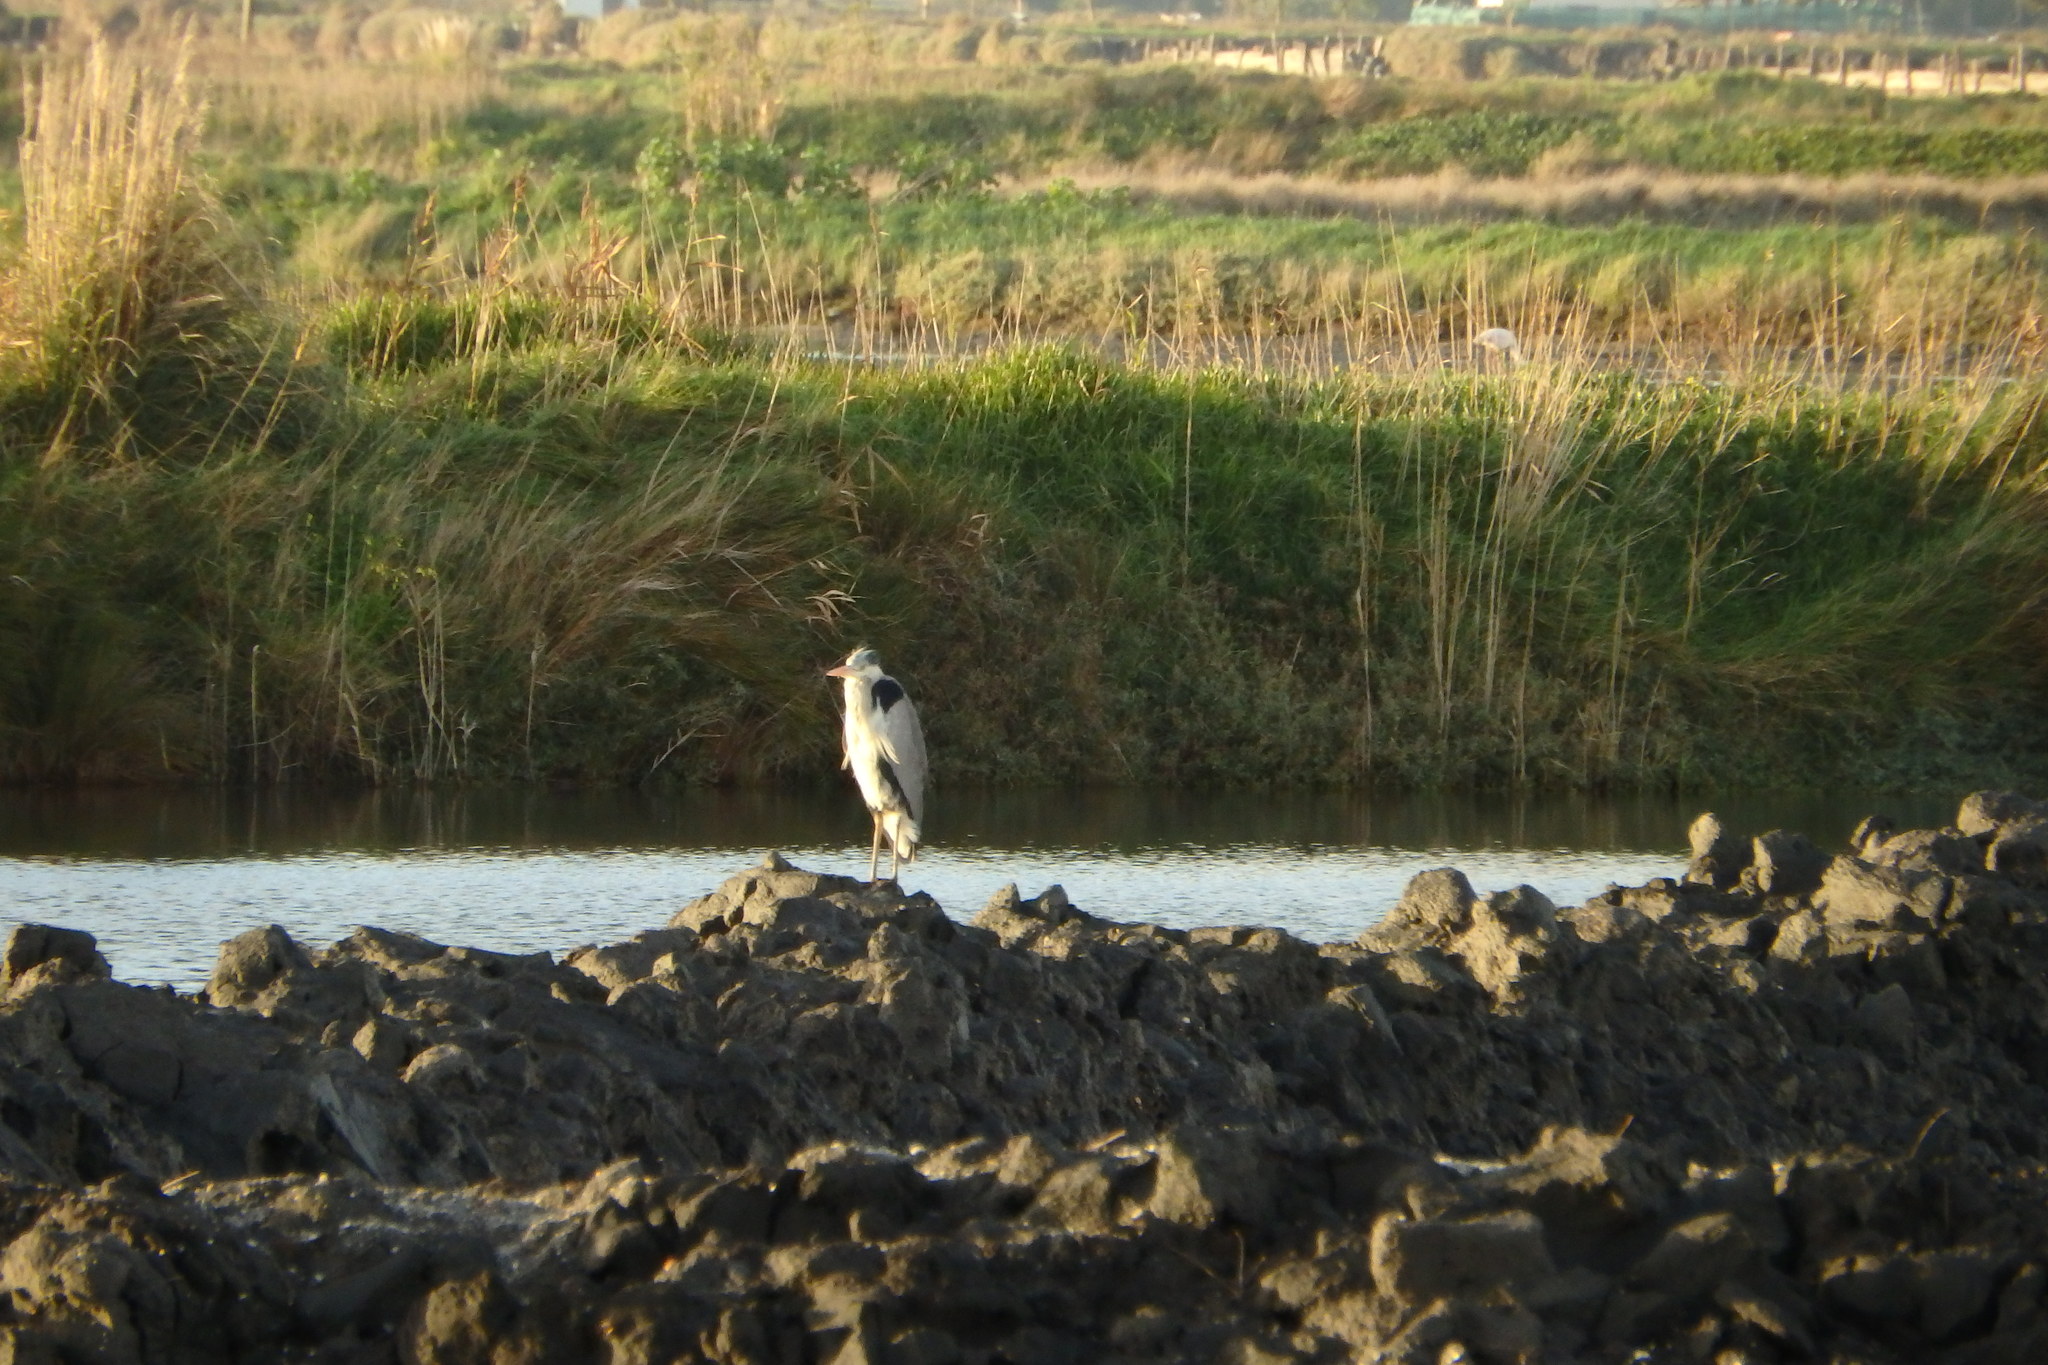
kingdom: Animalia
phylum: Chordata
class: Aves
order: Pelecaniformes
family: Ardeidae
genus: Ardea
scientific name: Ardea cinerea
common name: Grey heron
